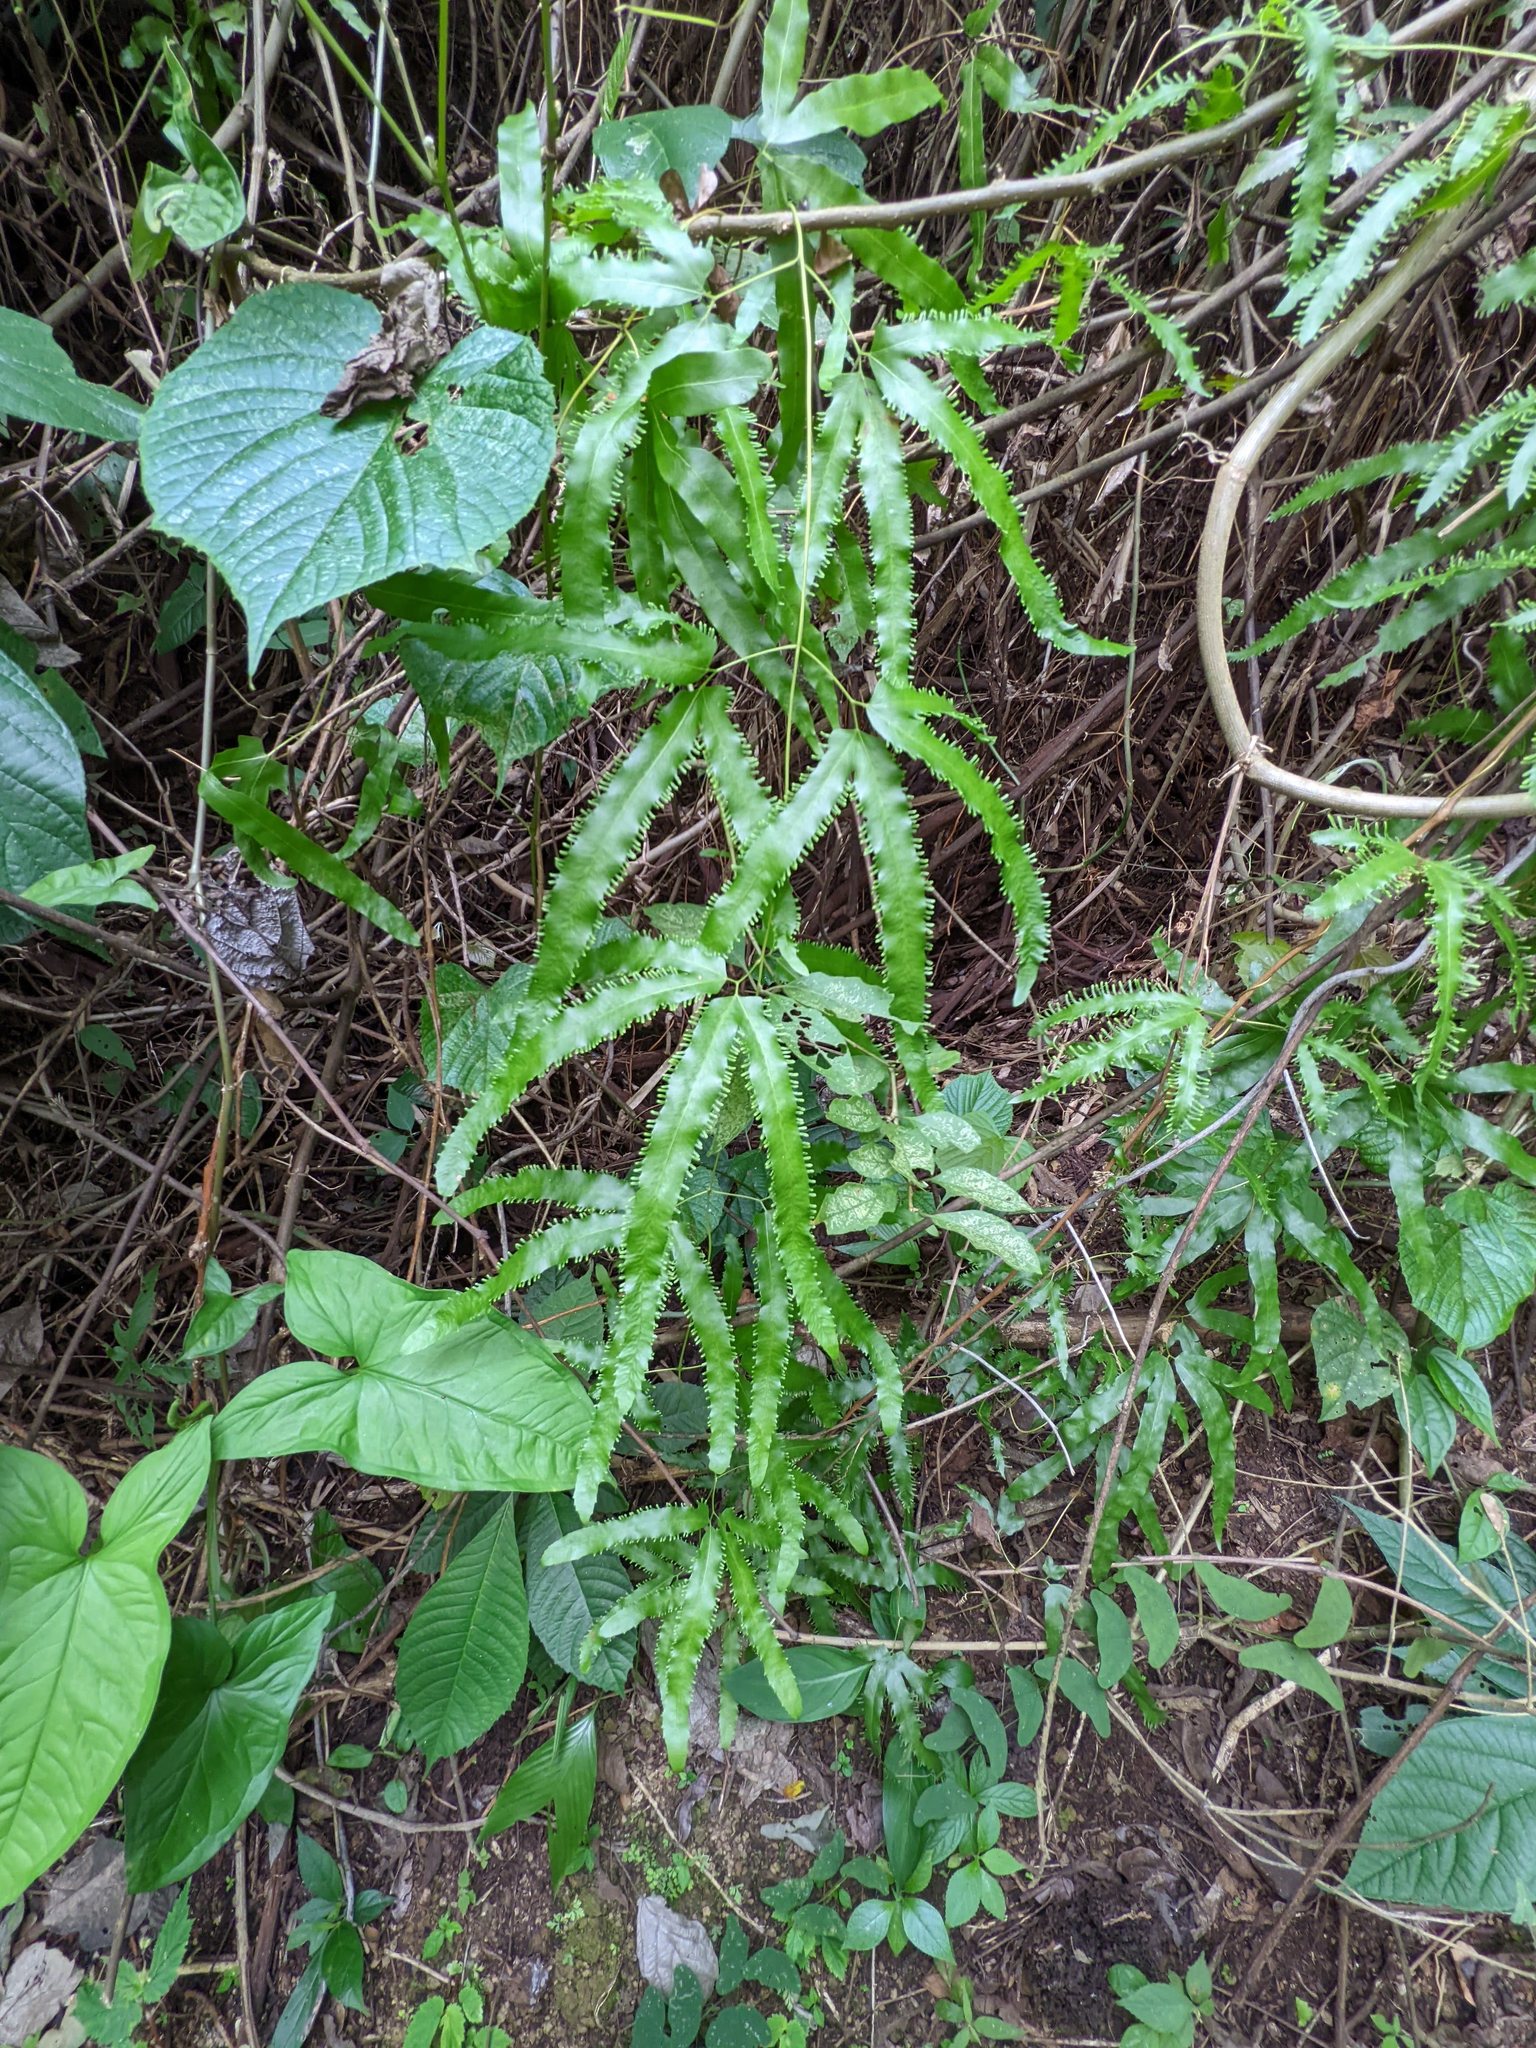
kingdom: Plantae
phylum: Tracheophyta
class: Polypodiopsida
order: Schizaeales
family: Lygodiaceae
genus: Lygodium
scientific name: Lygodium heterodoxum
